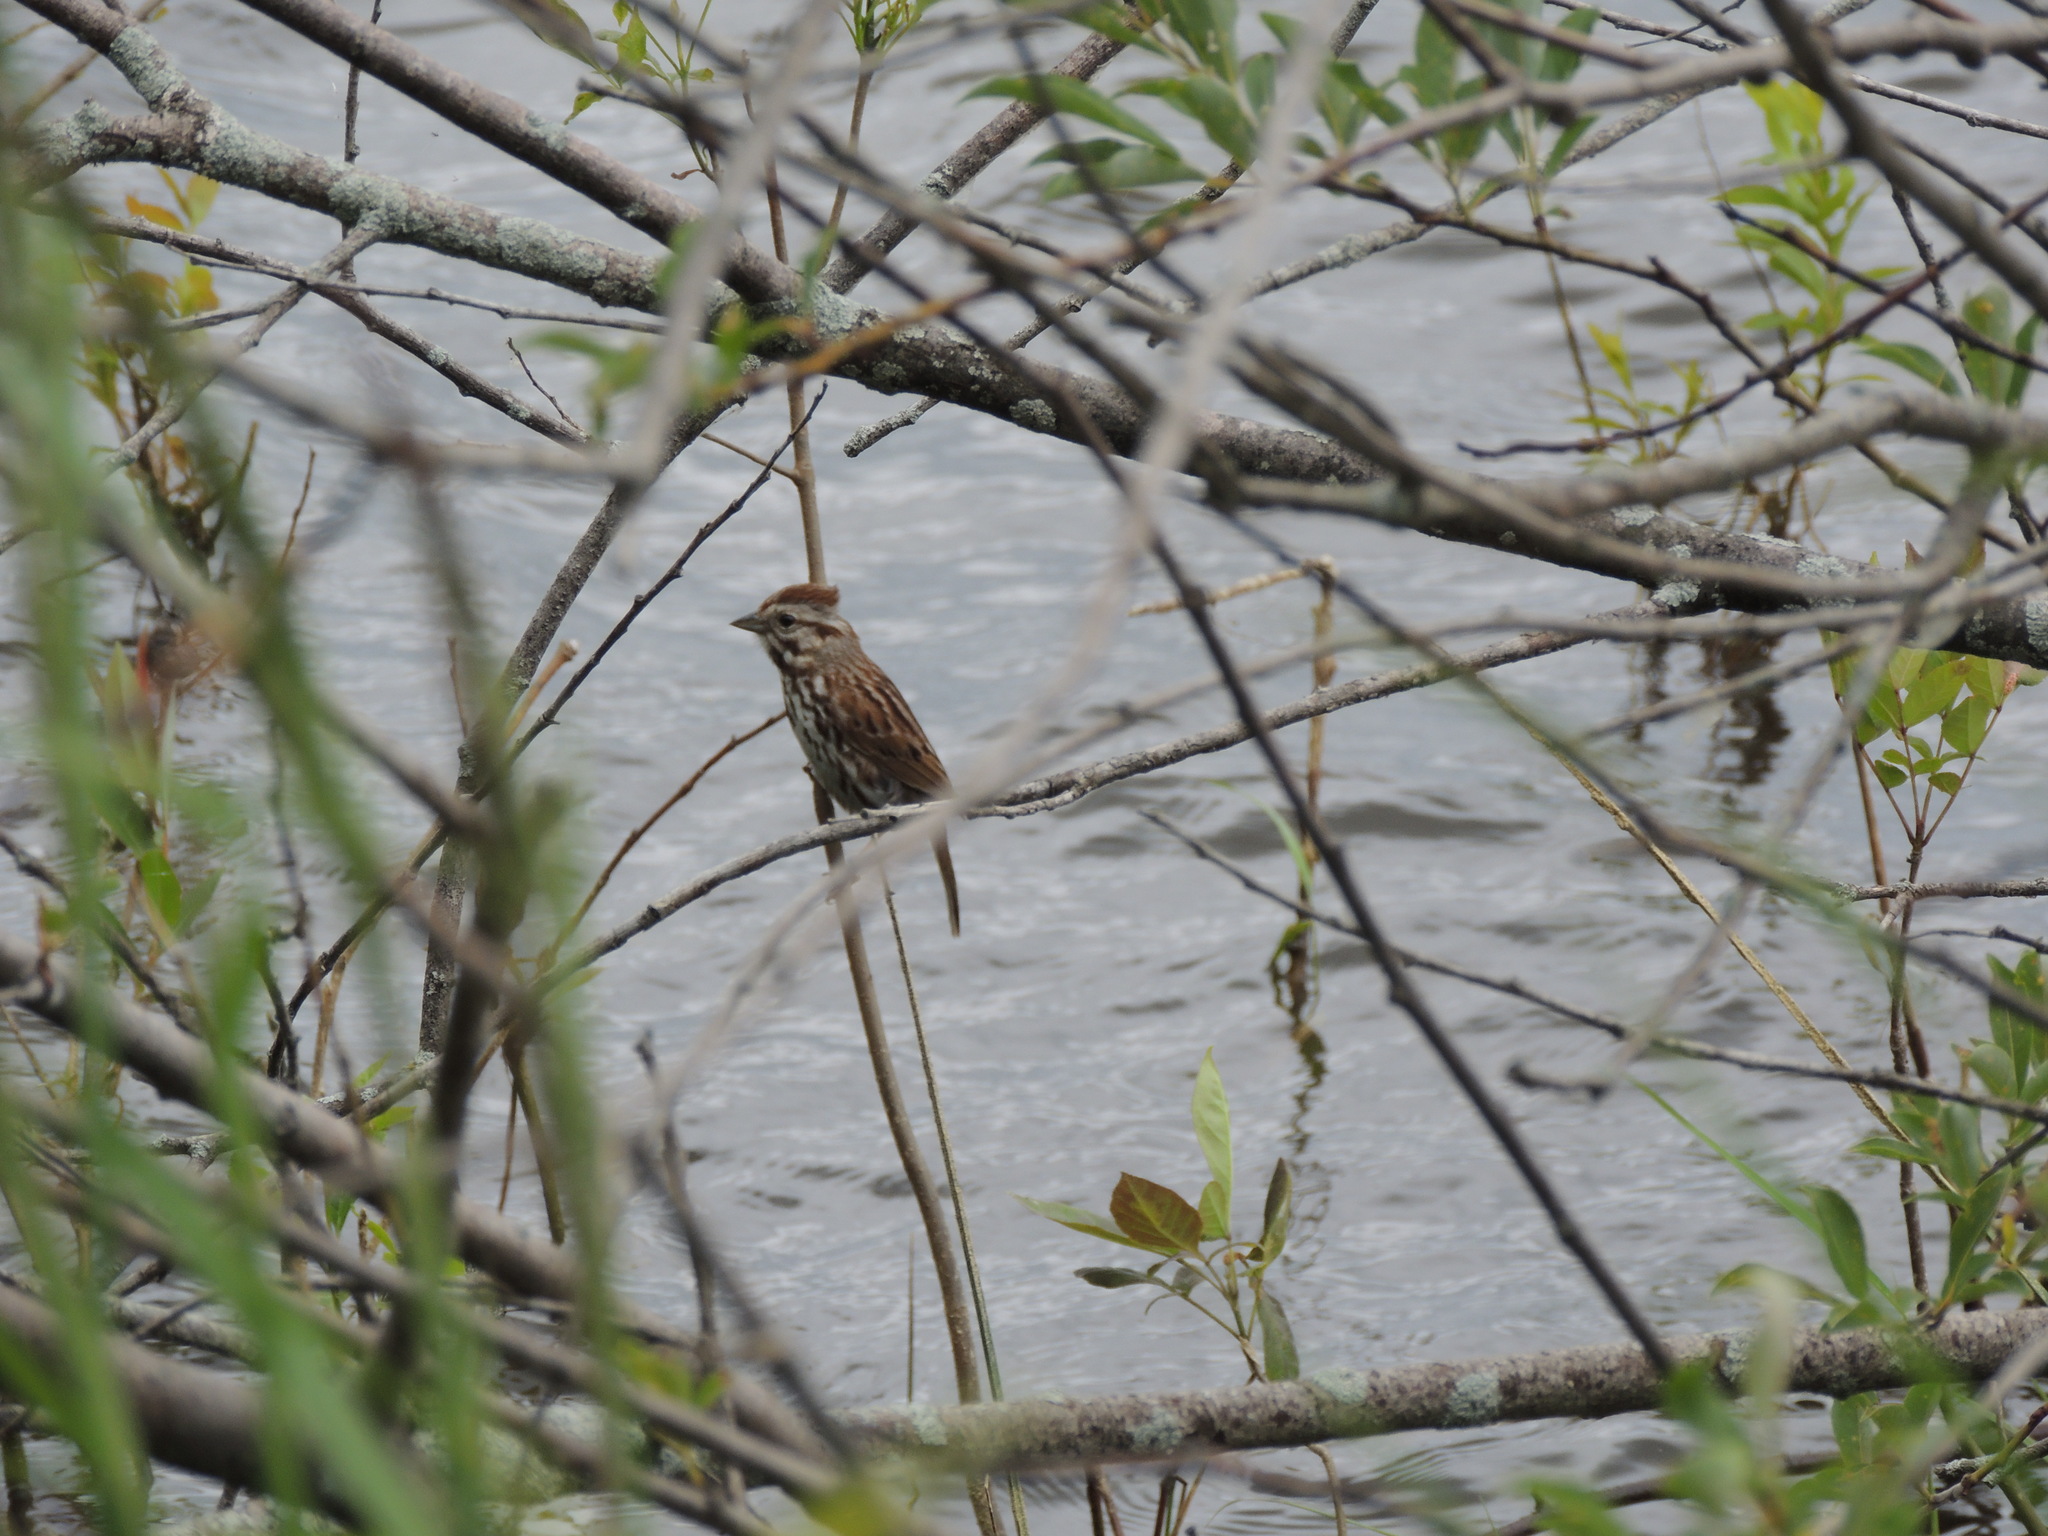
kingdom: Animalia
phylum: Chordata
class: Aves
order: Passeriformes
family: Passerellidae
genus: Melospiza
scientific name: Melospiza melodia
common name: Song sparrow
